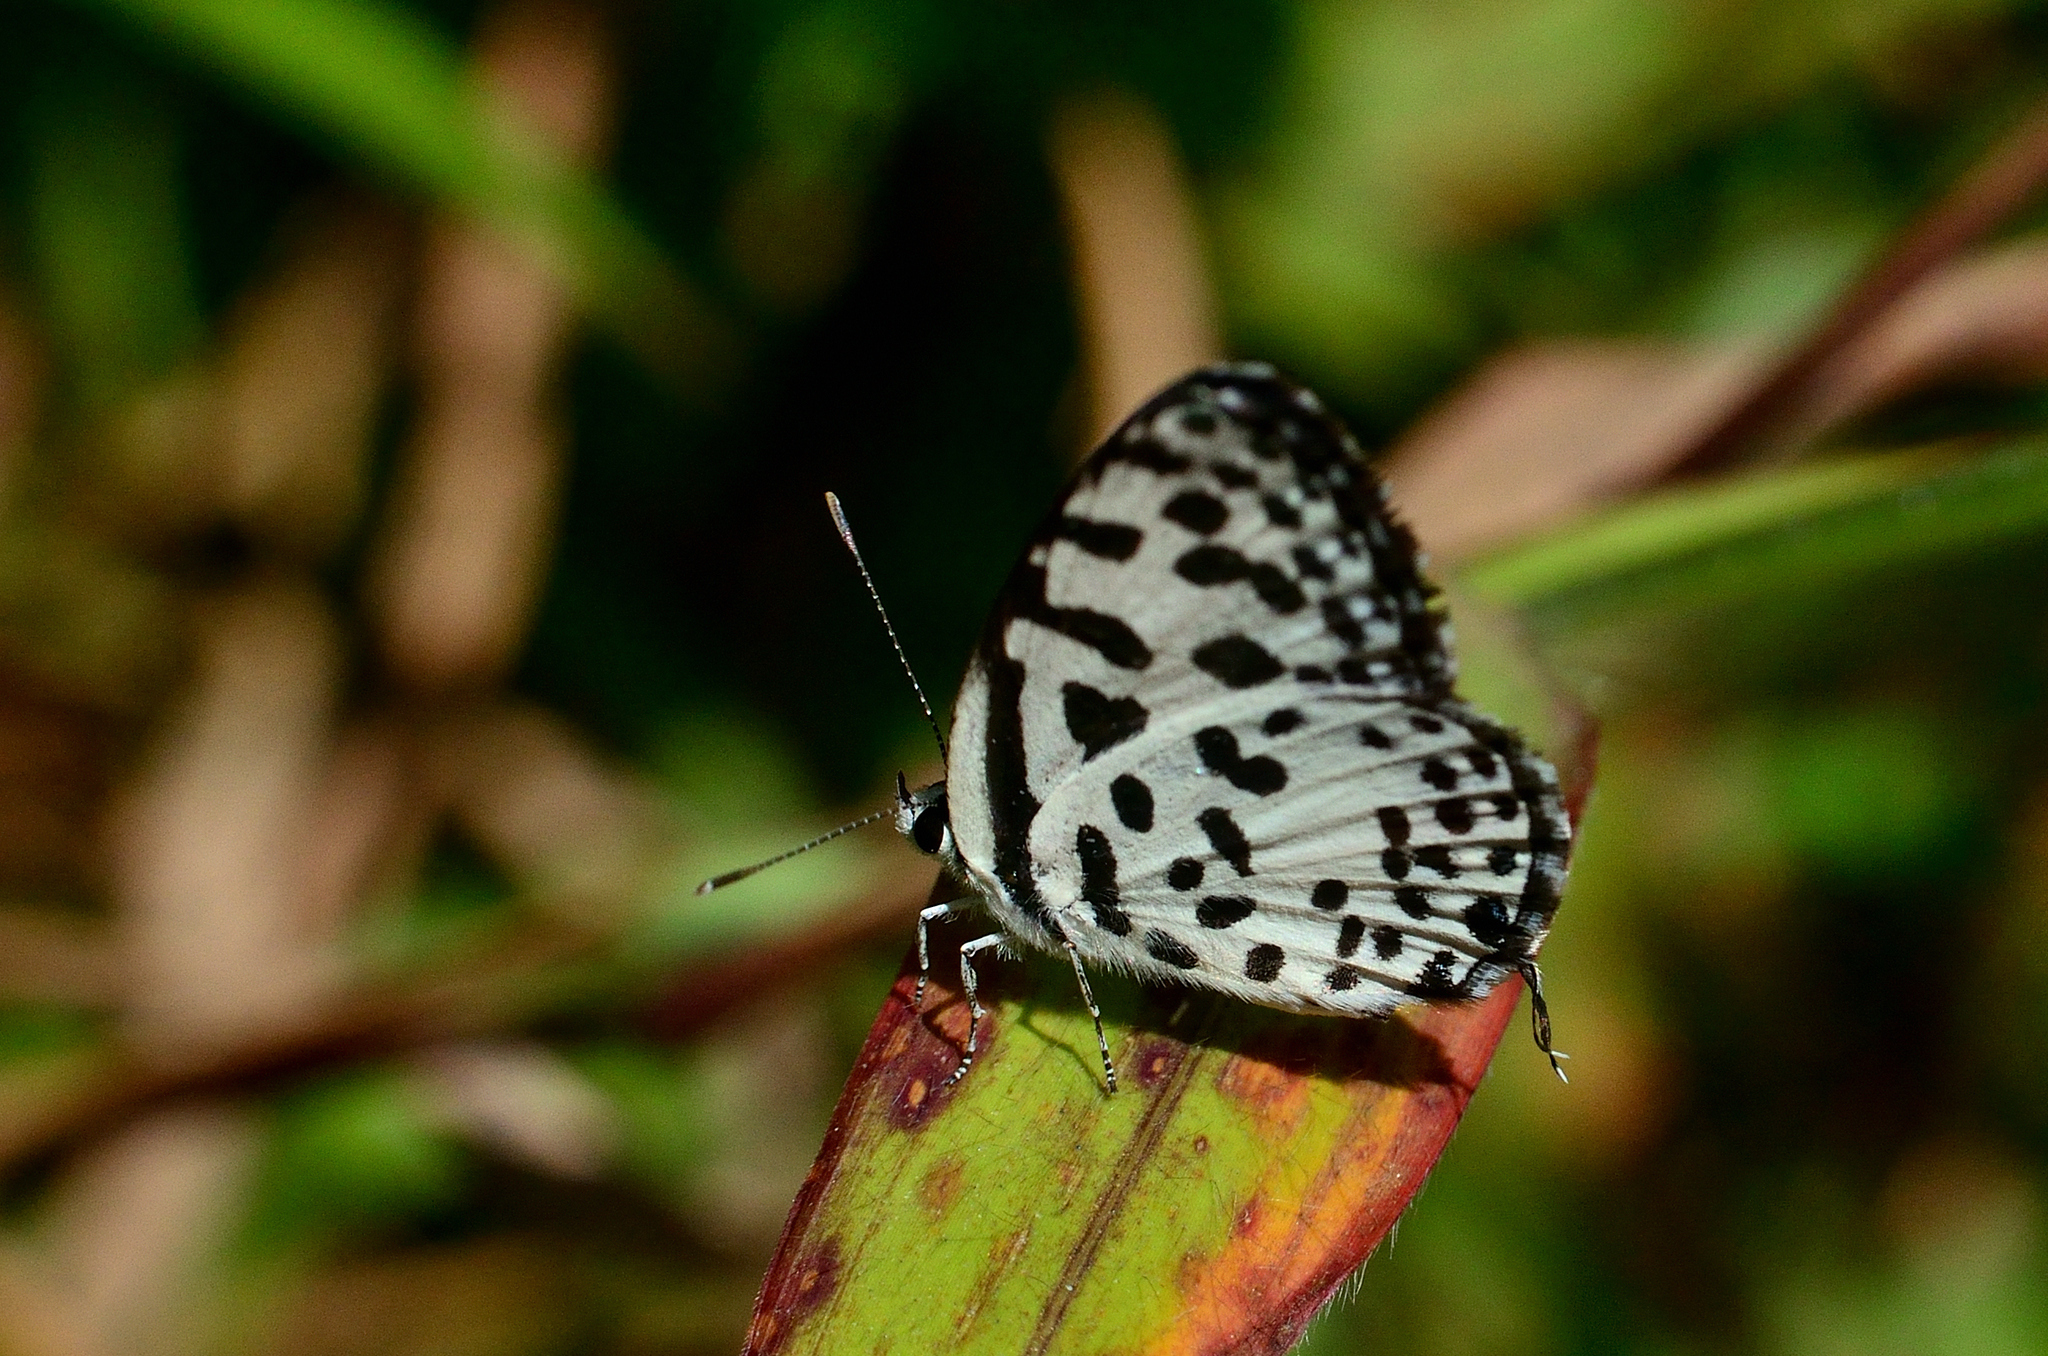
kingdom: Animalia
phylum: Arthropoda
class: Insecta
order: Lepidoptera
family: Lycaenidae
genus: Castalius
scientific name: Castalius rosimon
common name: Common pierrot
